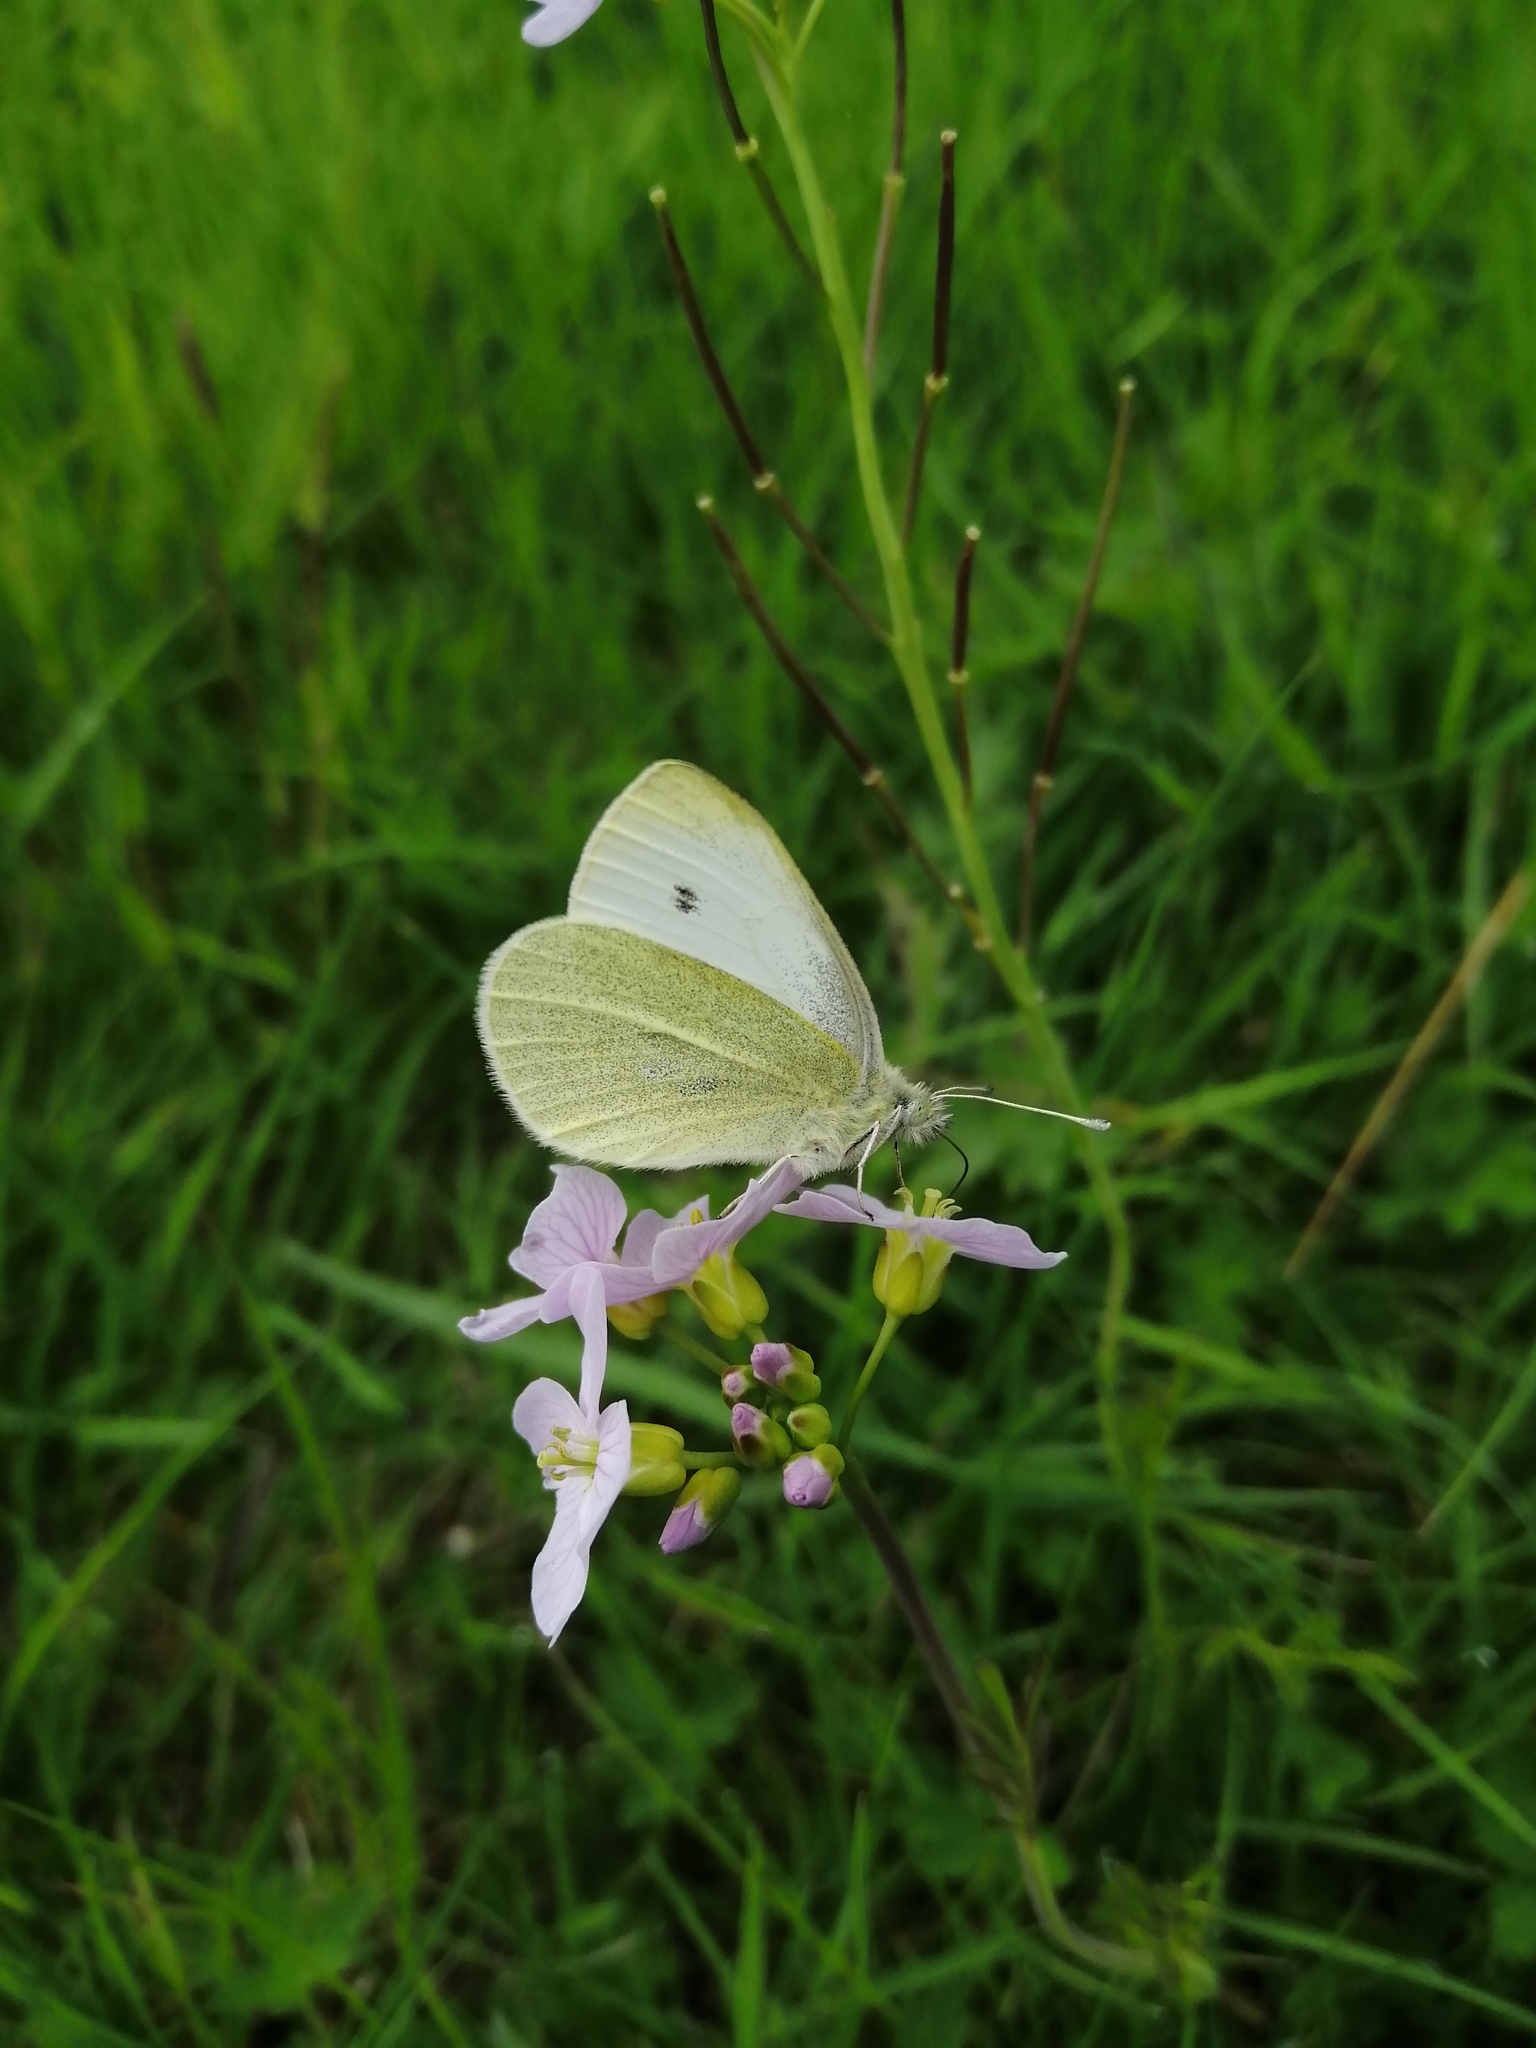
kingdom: Animalia
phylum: Arthropoda
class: Insecta
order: Lepidoptera
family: Pieridae
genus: Pieris
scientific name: Pieris rapae
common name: Small white
